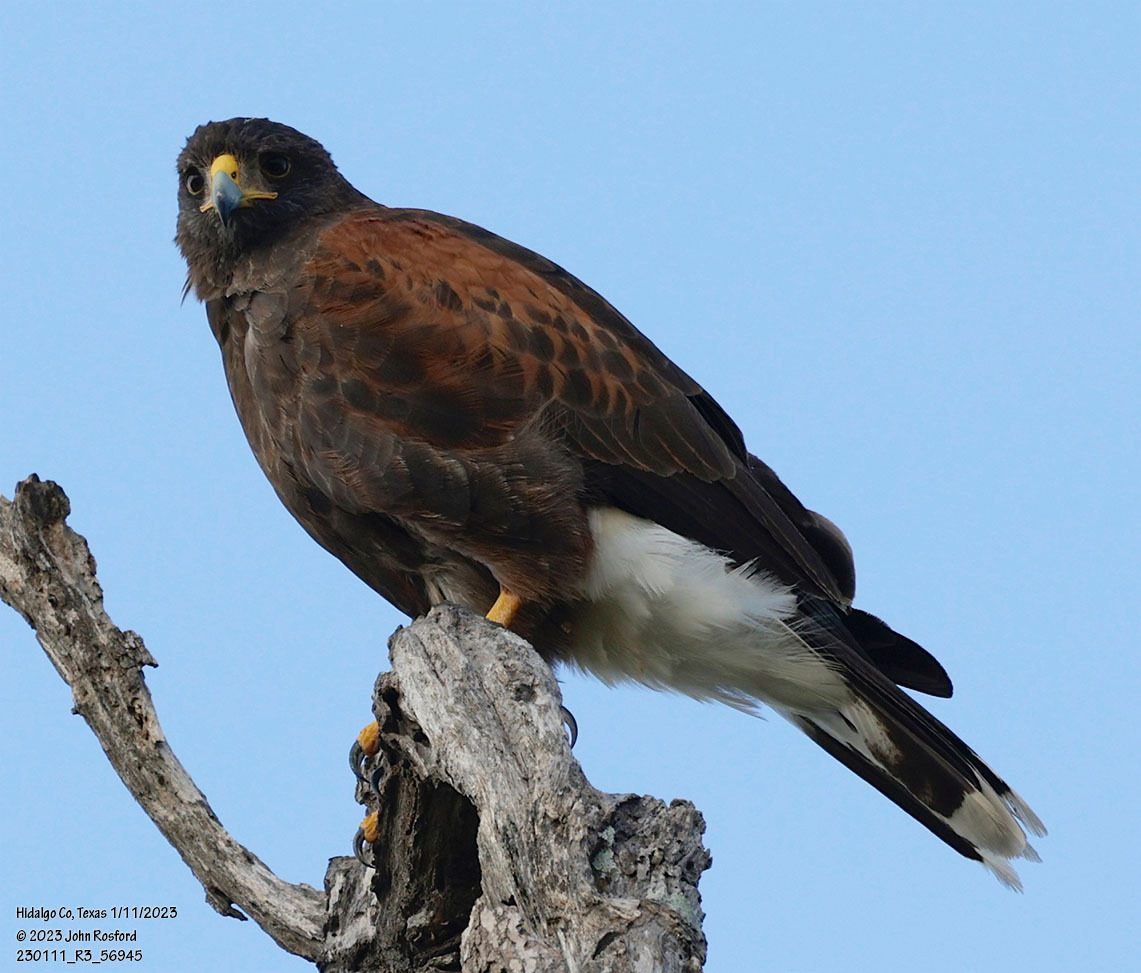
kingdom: Animalia
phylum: Chordata
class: Aves
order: Accipitriformes
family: Accipitridae
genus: Parabuteo
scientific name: Parabuteo unicinctus
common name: Harris's hawk
